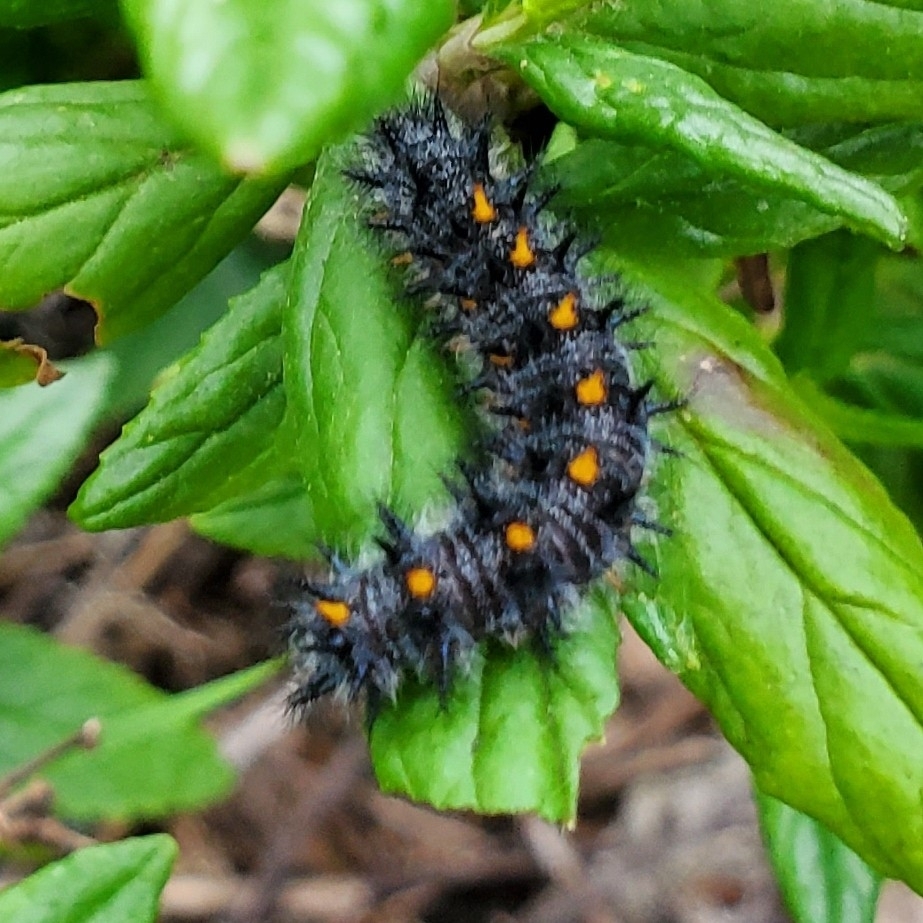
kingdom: Animalia
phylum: Arthropoda
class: Insecta
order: Lepidoptera
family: Nymphalidae
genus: Occidryas
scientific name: Occidryas chalcedona
